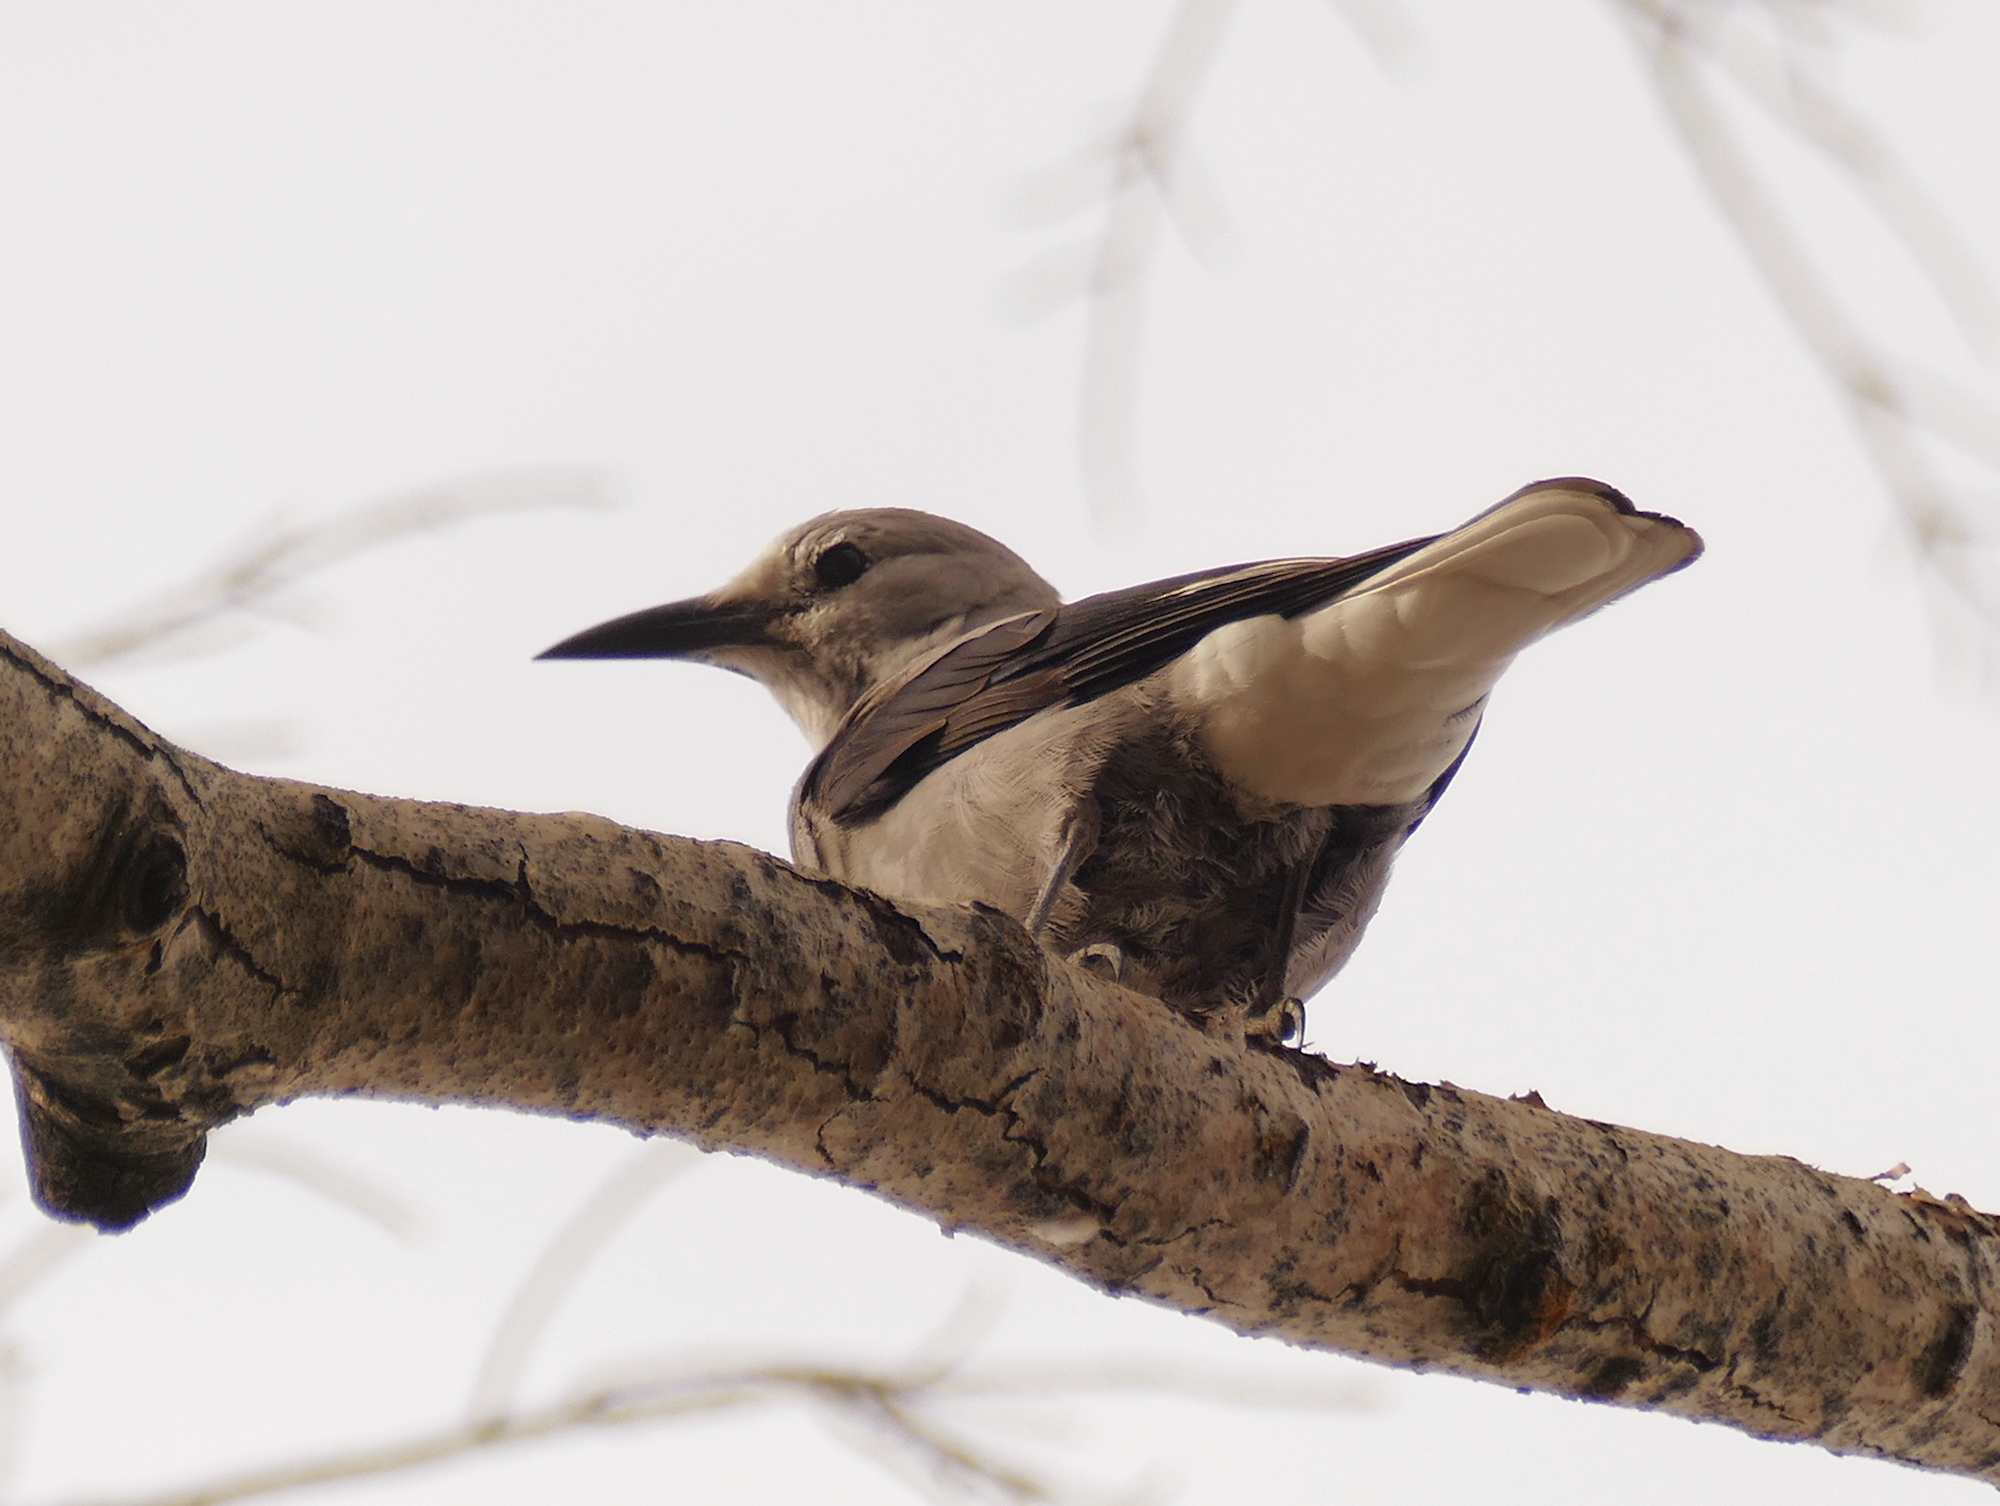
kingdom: Animalia
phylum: Chordata
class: Aves
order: Passeriformes
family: Corvidae
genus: Nucifraga
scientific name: Nucifraga columbiana
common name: Clark's nutcracker
